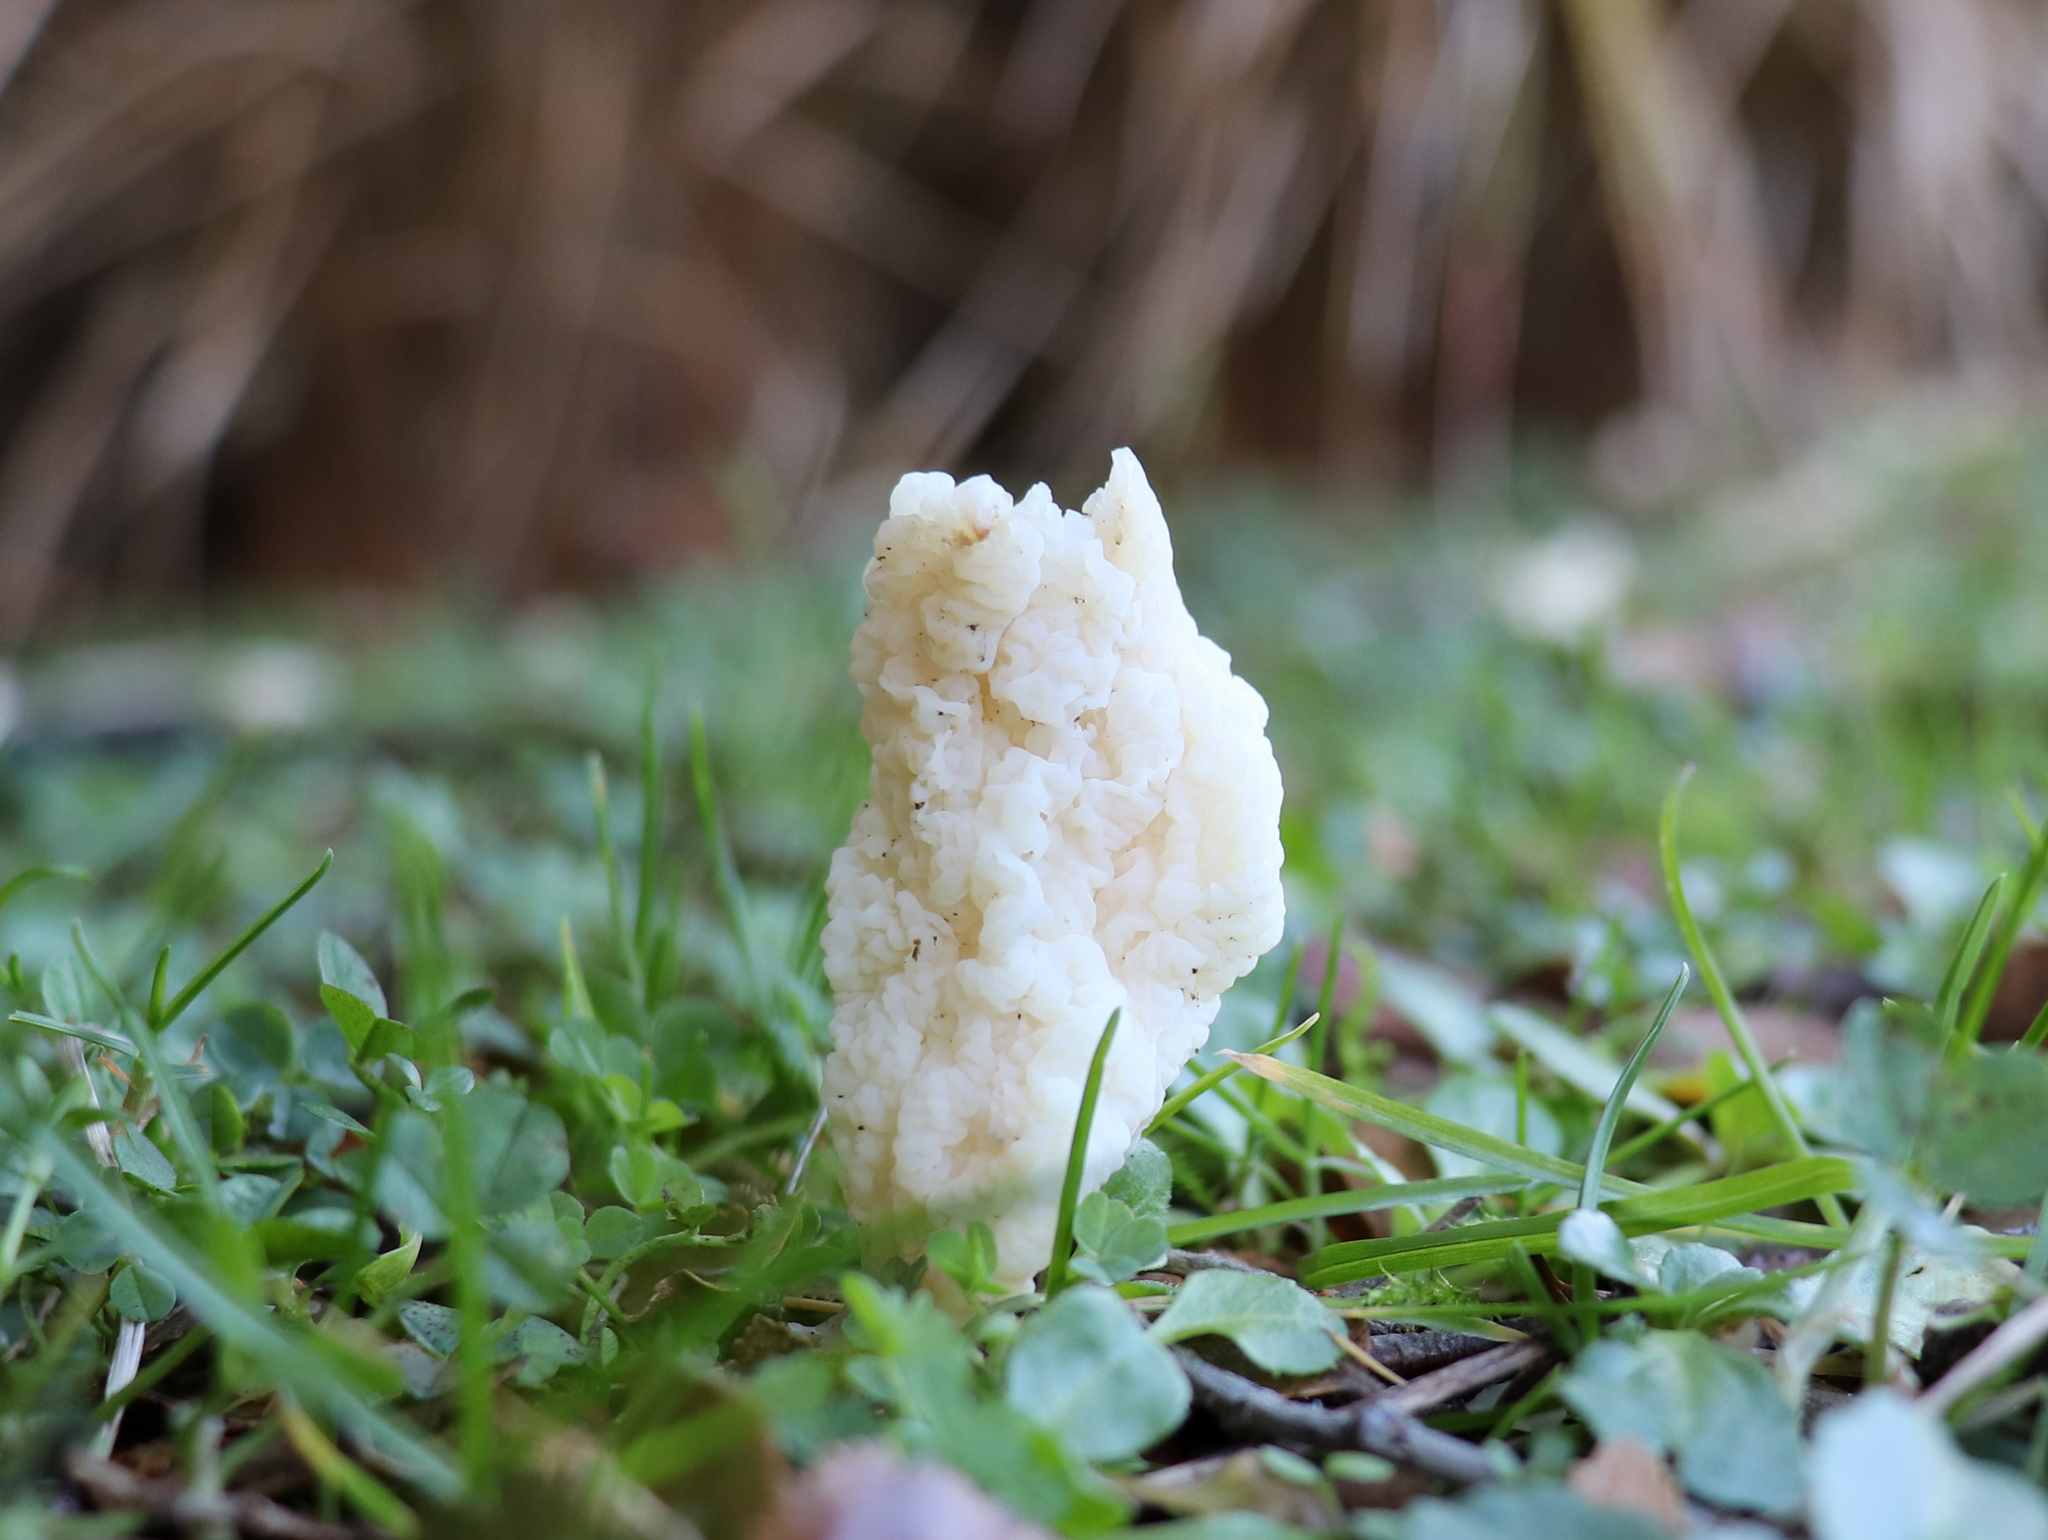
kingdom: Fungi
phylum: Basidiomycota
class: Agaricomycetes
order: Cantharellales
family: Hydnaceae
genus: Clavulina
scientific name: Clavulina rugosa
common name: Wrinkled club
